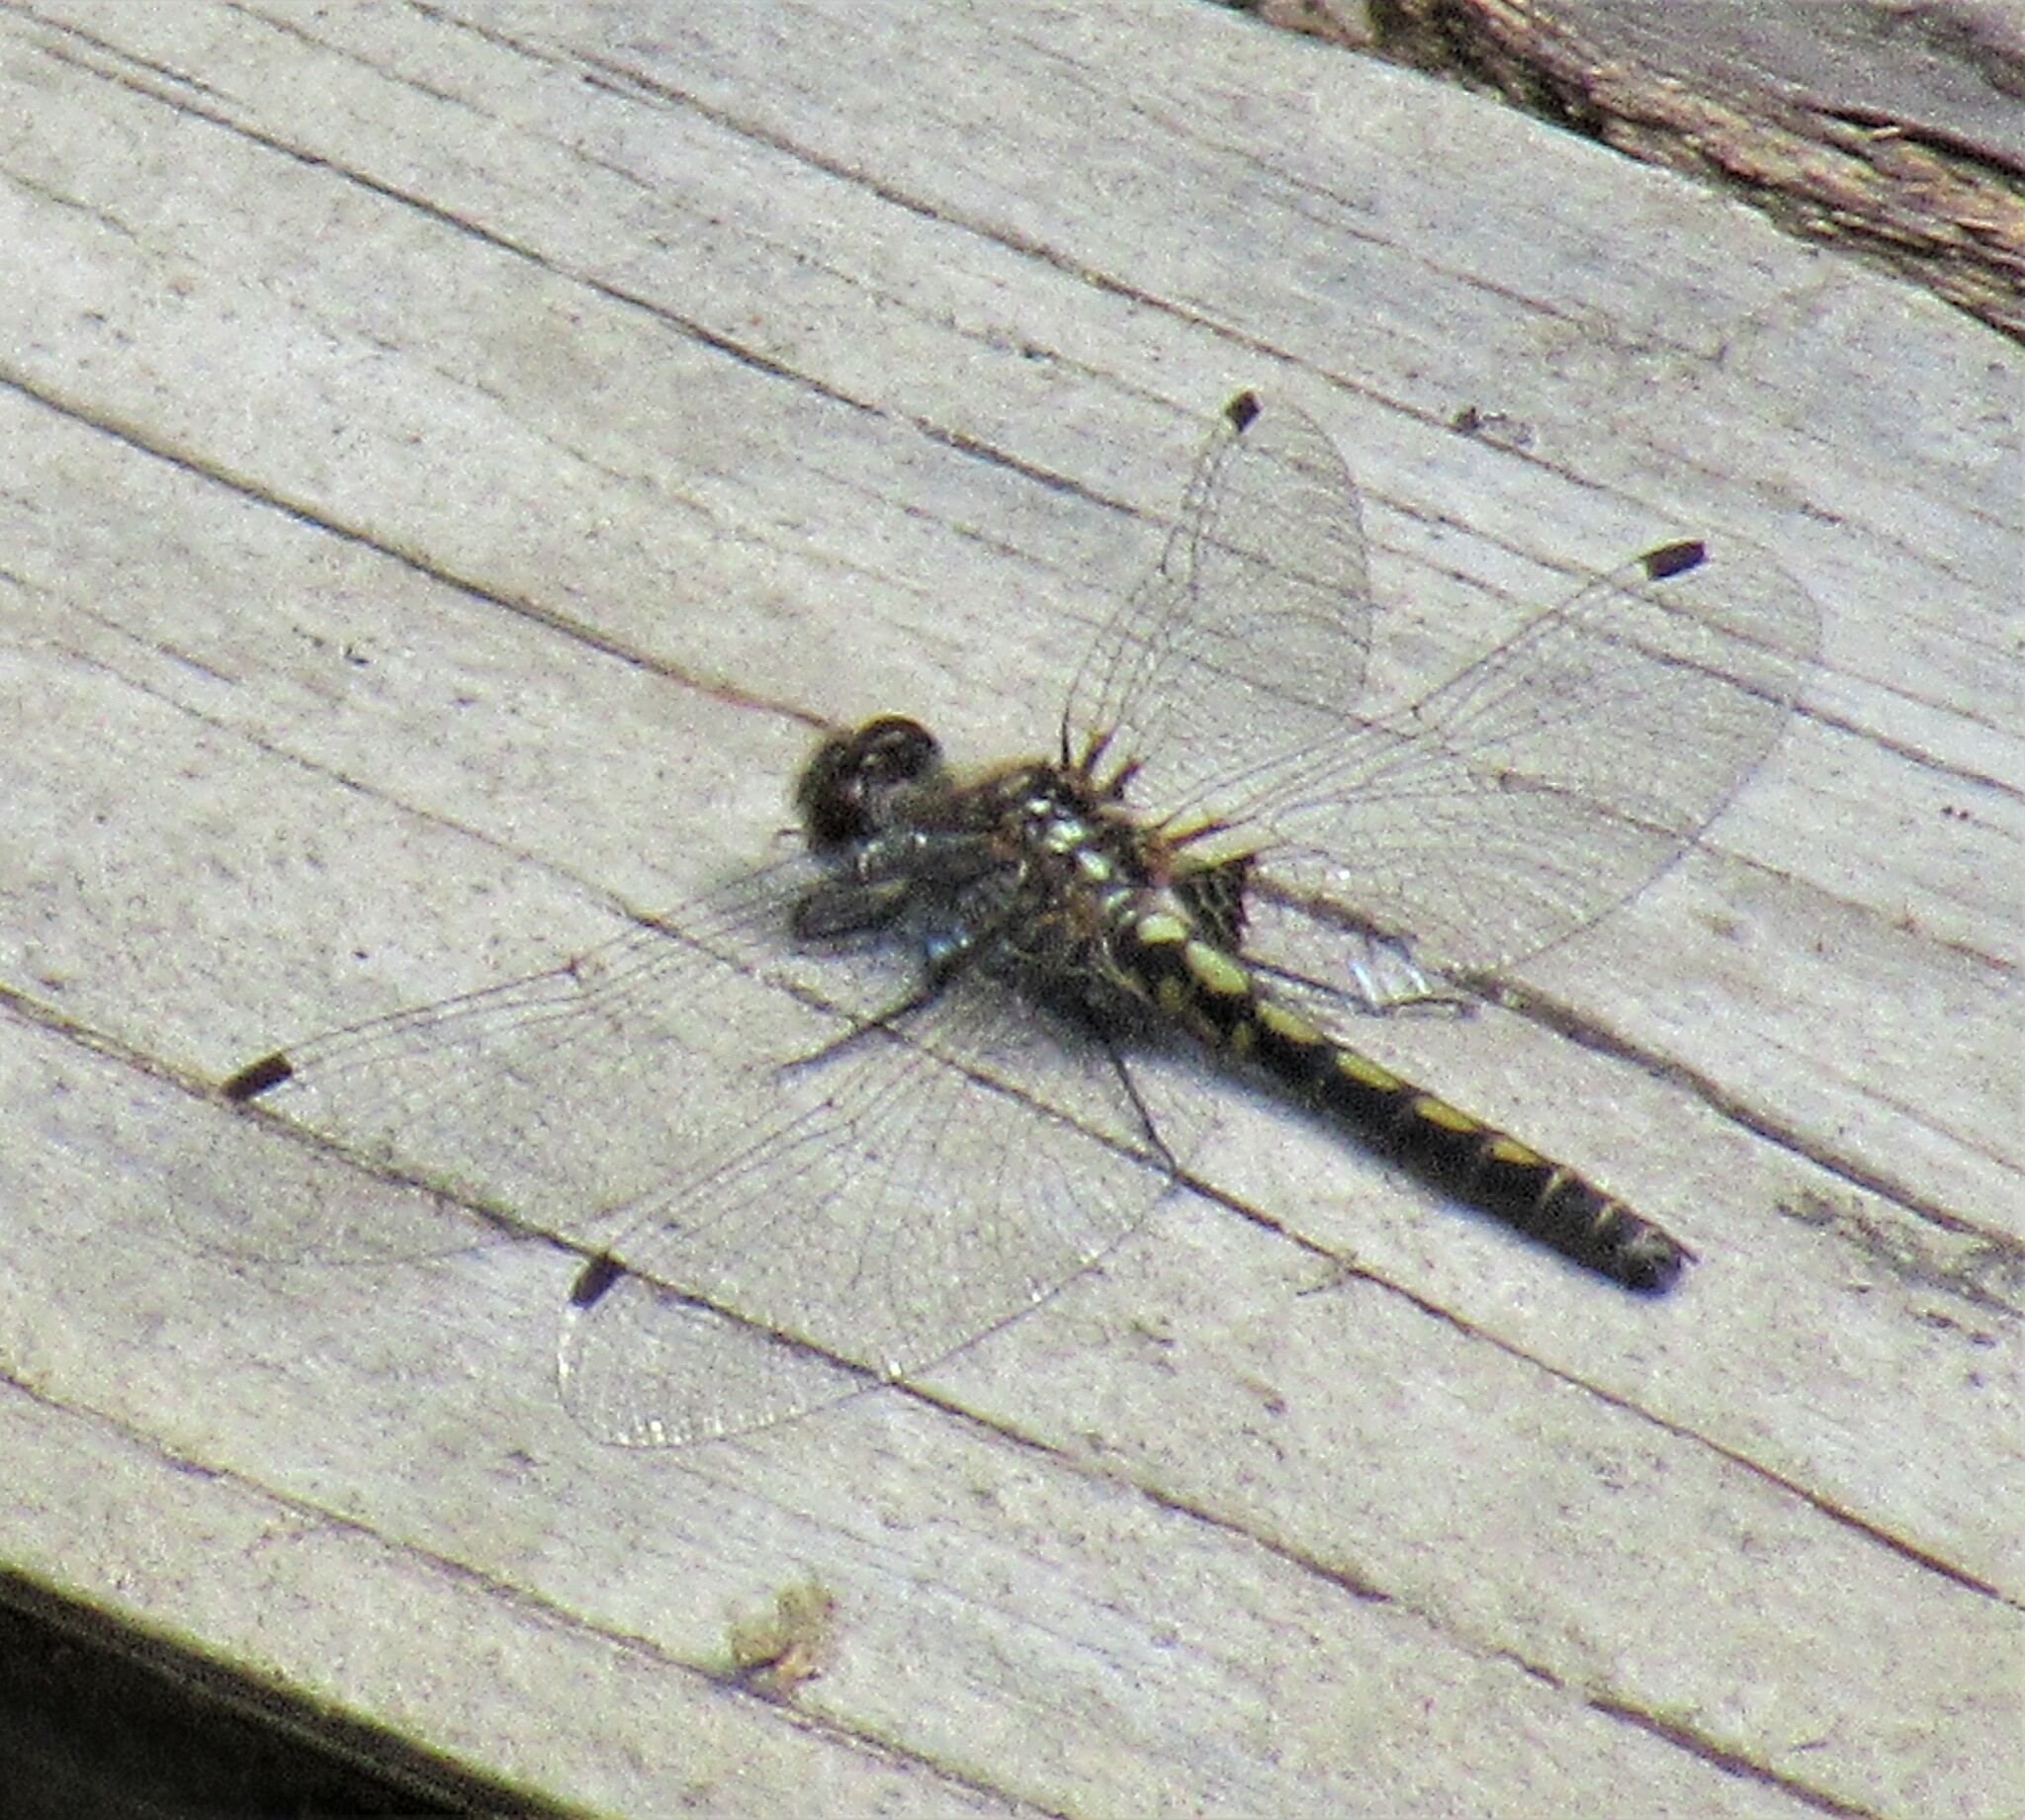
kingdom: Animalia
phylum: Arthropoda
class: Insecta
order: Odonata
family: Libellulidae
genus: Leucorrhinia
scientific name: Leucorrhinia hudsonica
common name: Hudsonian whiteface
